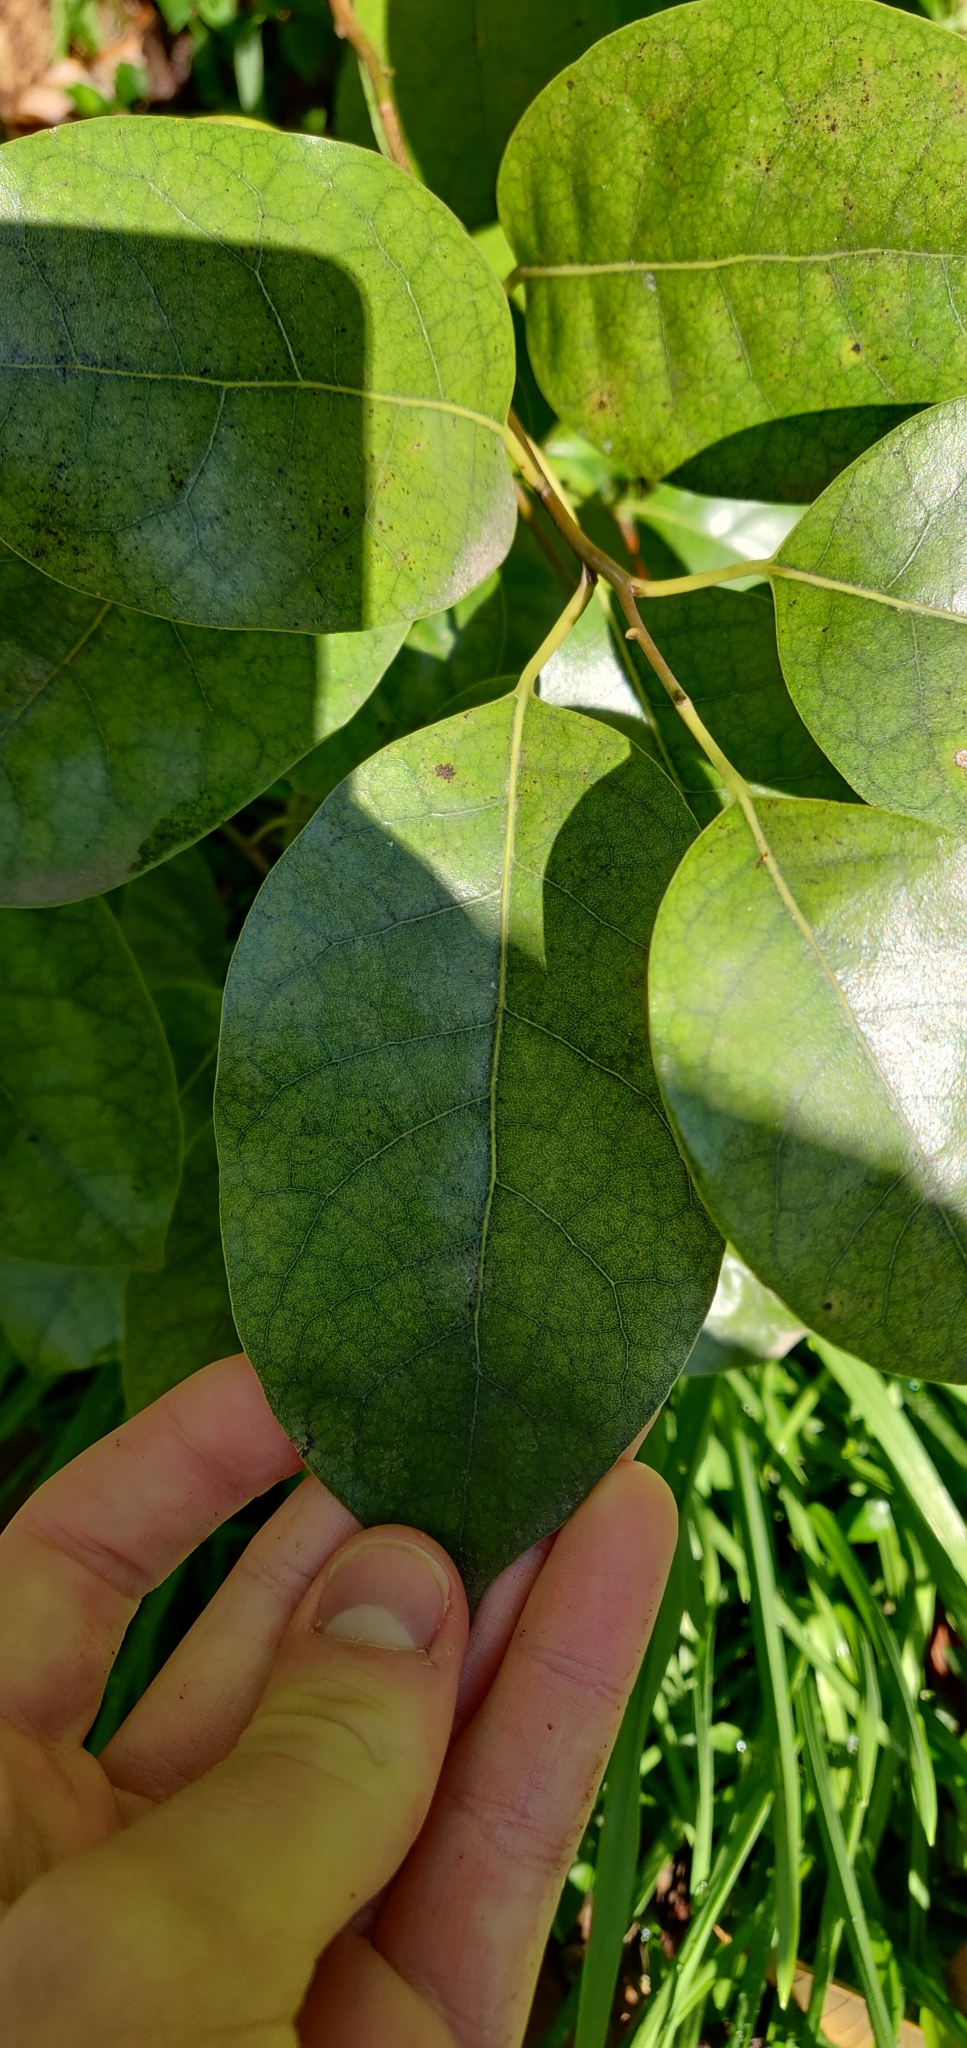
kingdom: Plantae
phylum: Tracheophyta
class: Magnoliopsida
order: Laurales
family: Lauraceae
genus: Litsea
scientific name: Litsea calicaris
